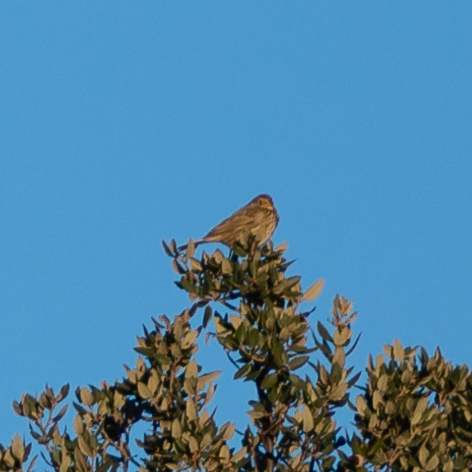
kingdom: Animalia
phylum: Chordata
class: Aves
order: Passeriformes
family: Emberizidae
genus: Emberiza
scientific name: Emberiza calandra
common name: Corn bunting
